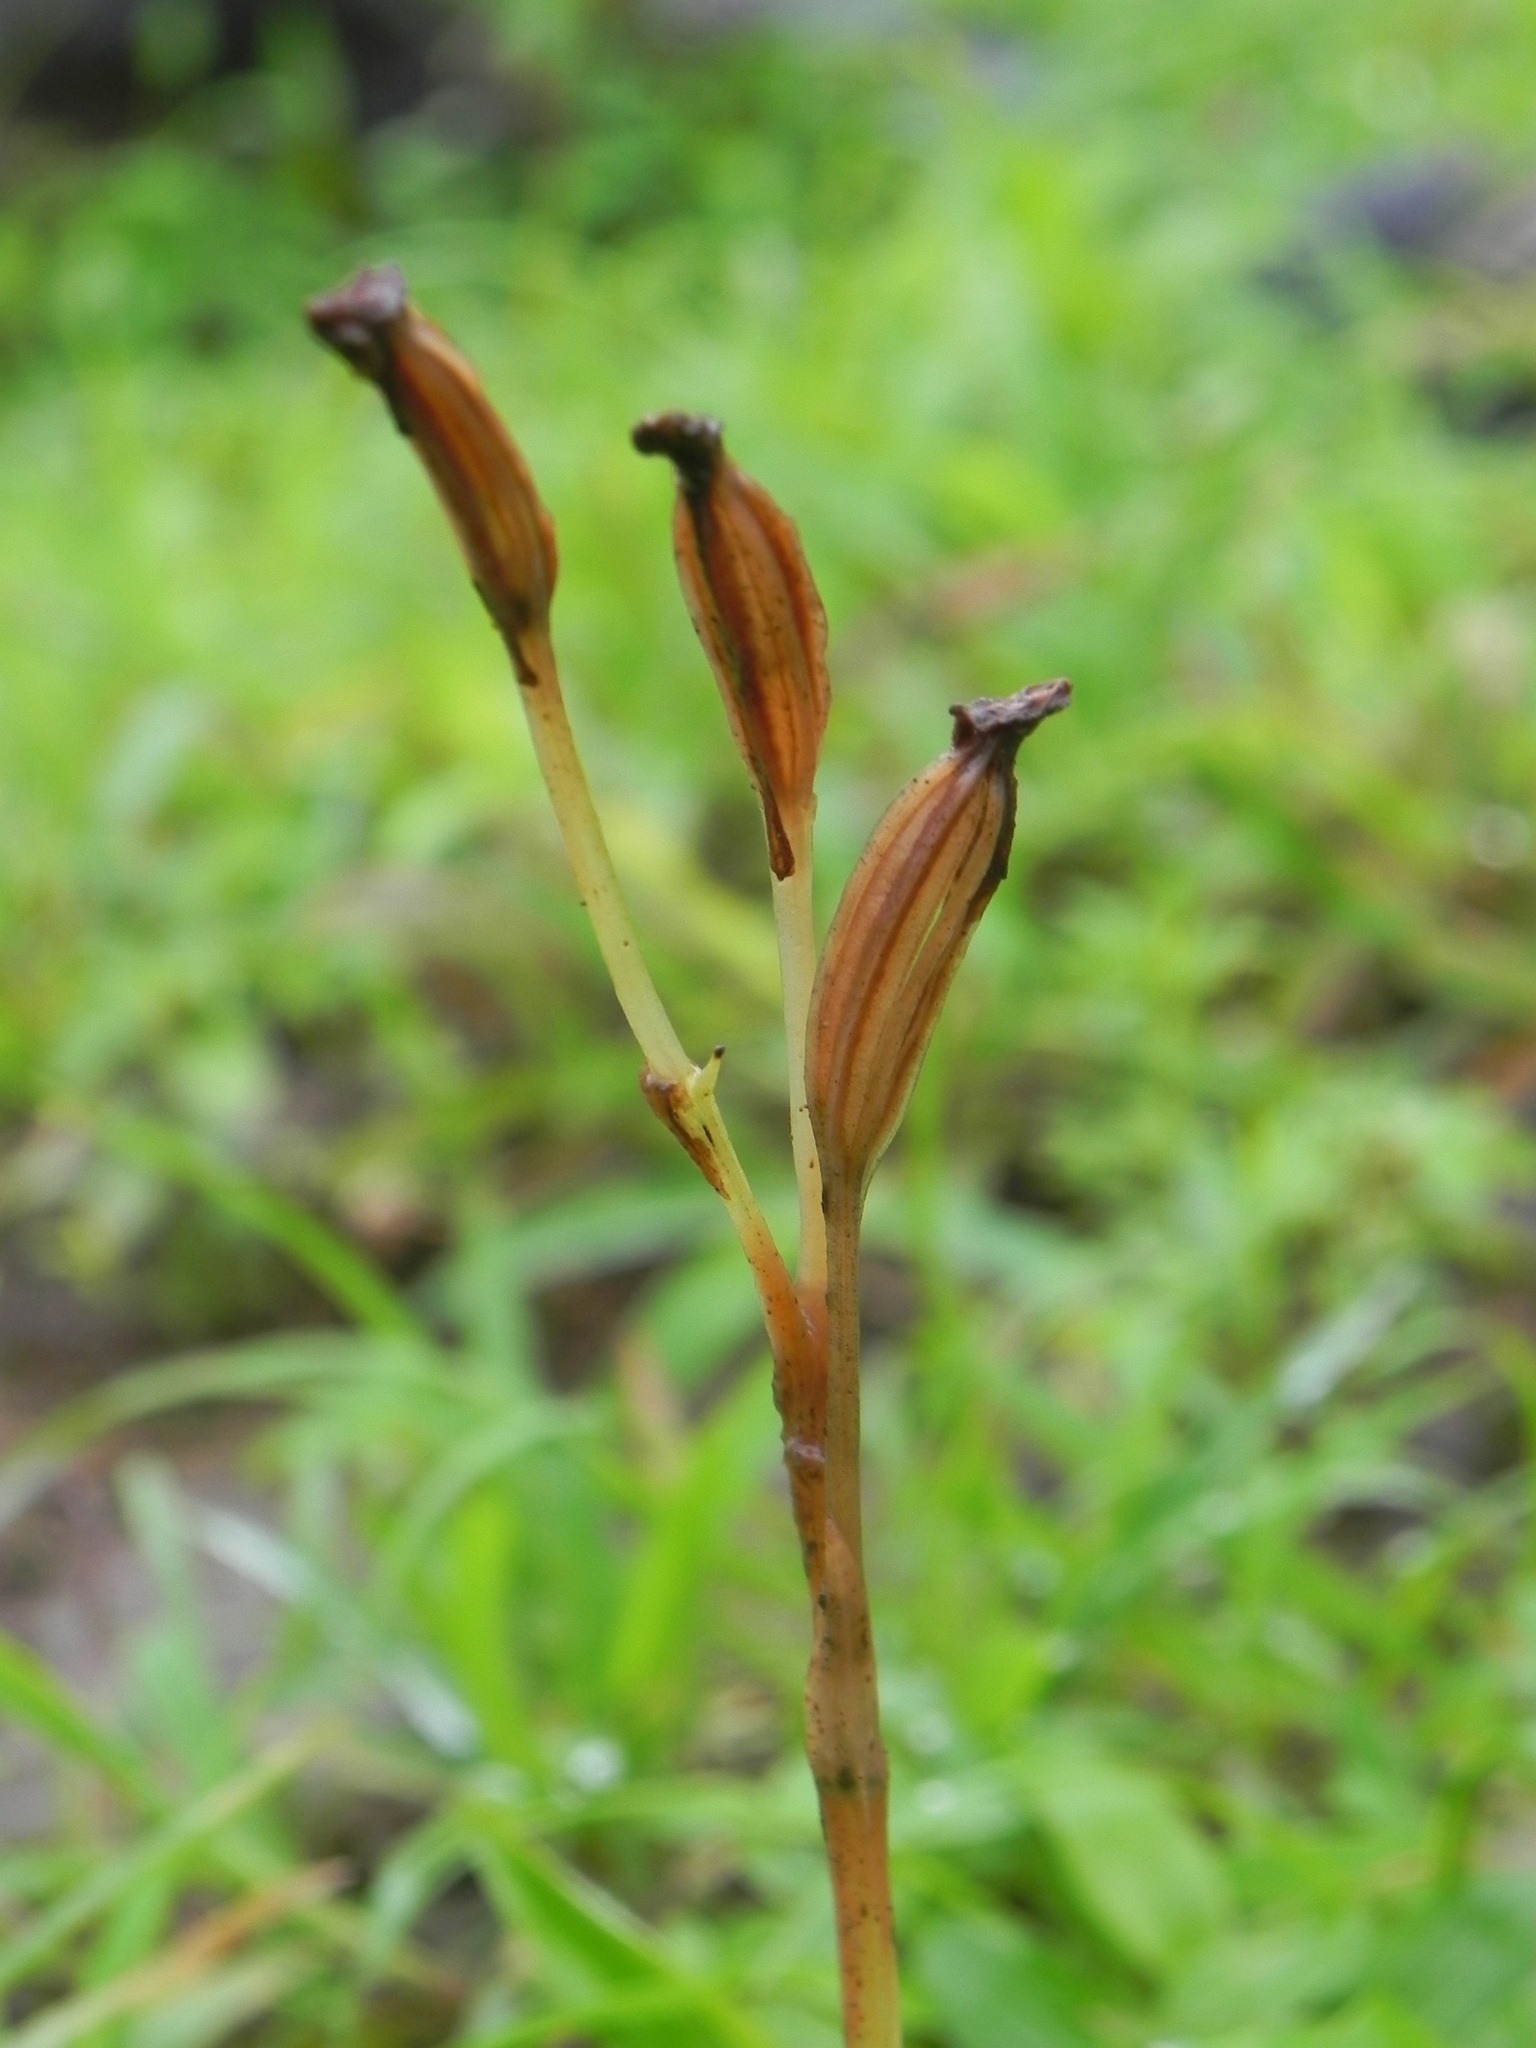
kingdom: Plantae
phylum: Tracheophyta
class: Liliopsida
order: Asparagales
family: Orchidaceae
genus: Habenaria
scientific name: Habenaria grandifloriformis
